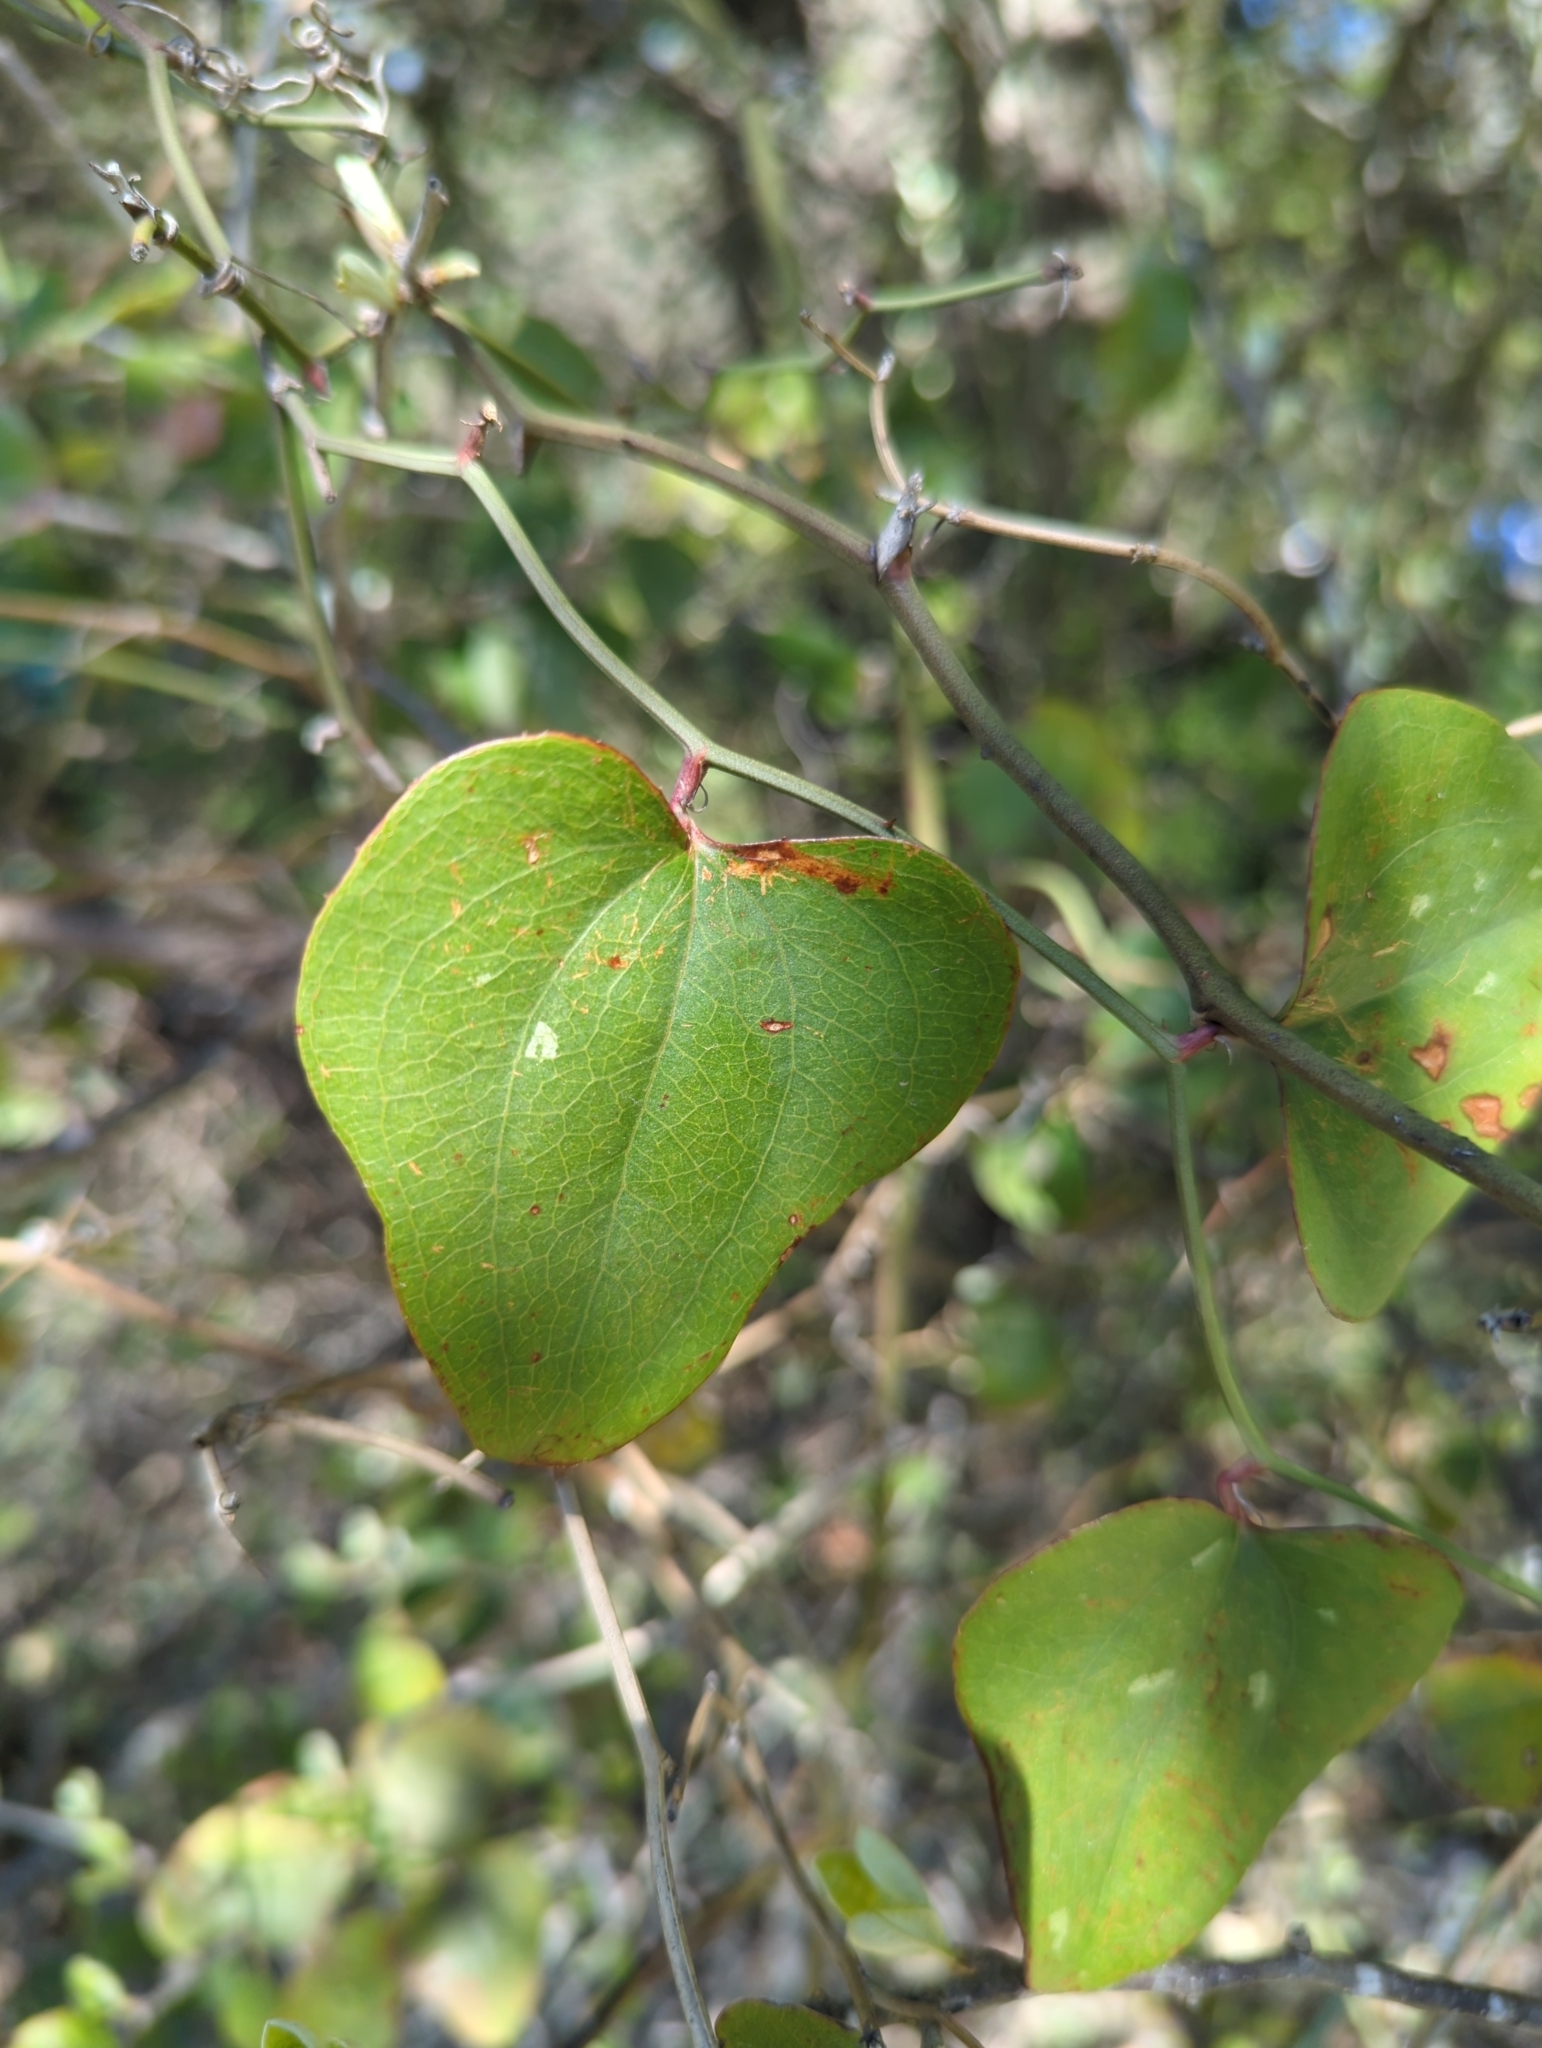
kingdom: Plantae
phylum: Tracheophyta
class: Liliopsida
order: Liliales
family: Smilacaceae
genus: Smilax
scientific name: Smilax bona-nox
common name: Catbrier
